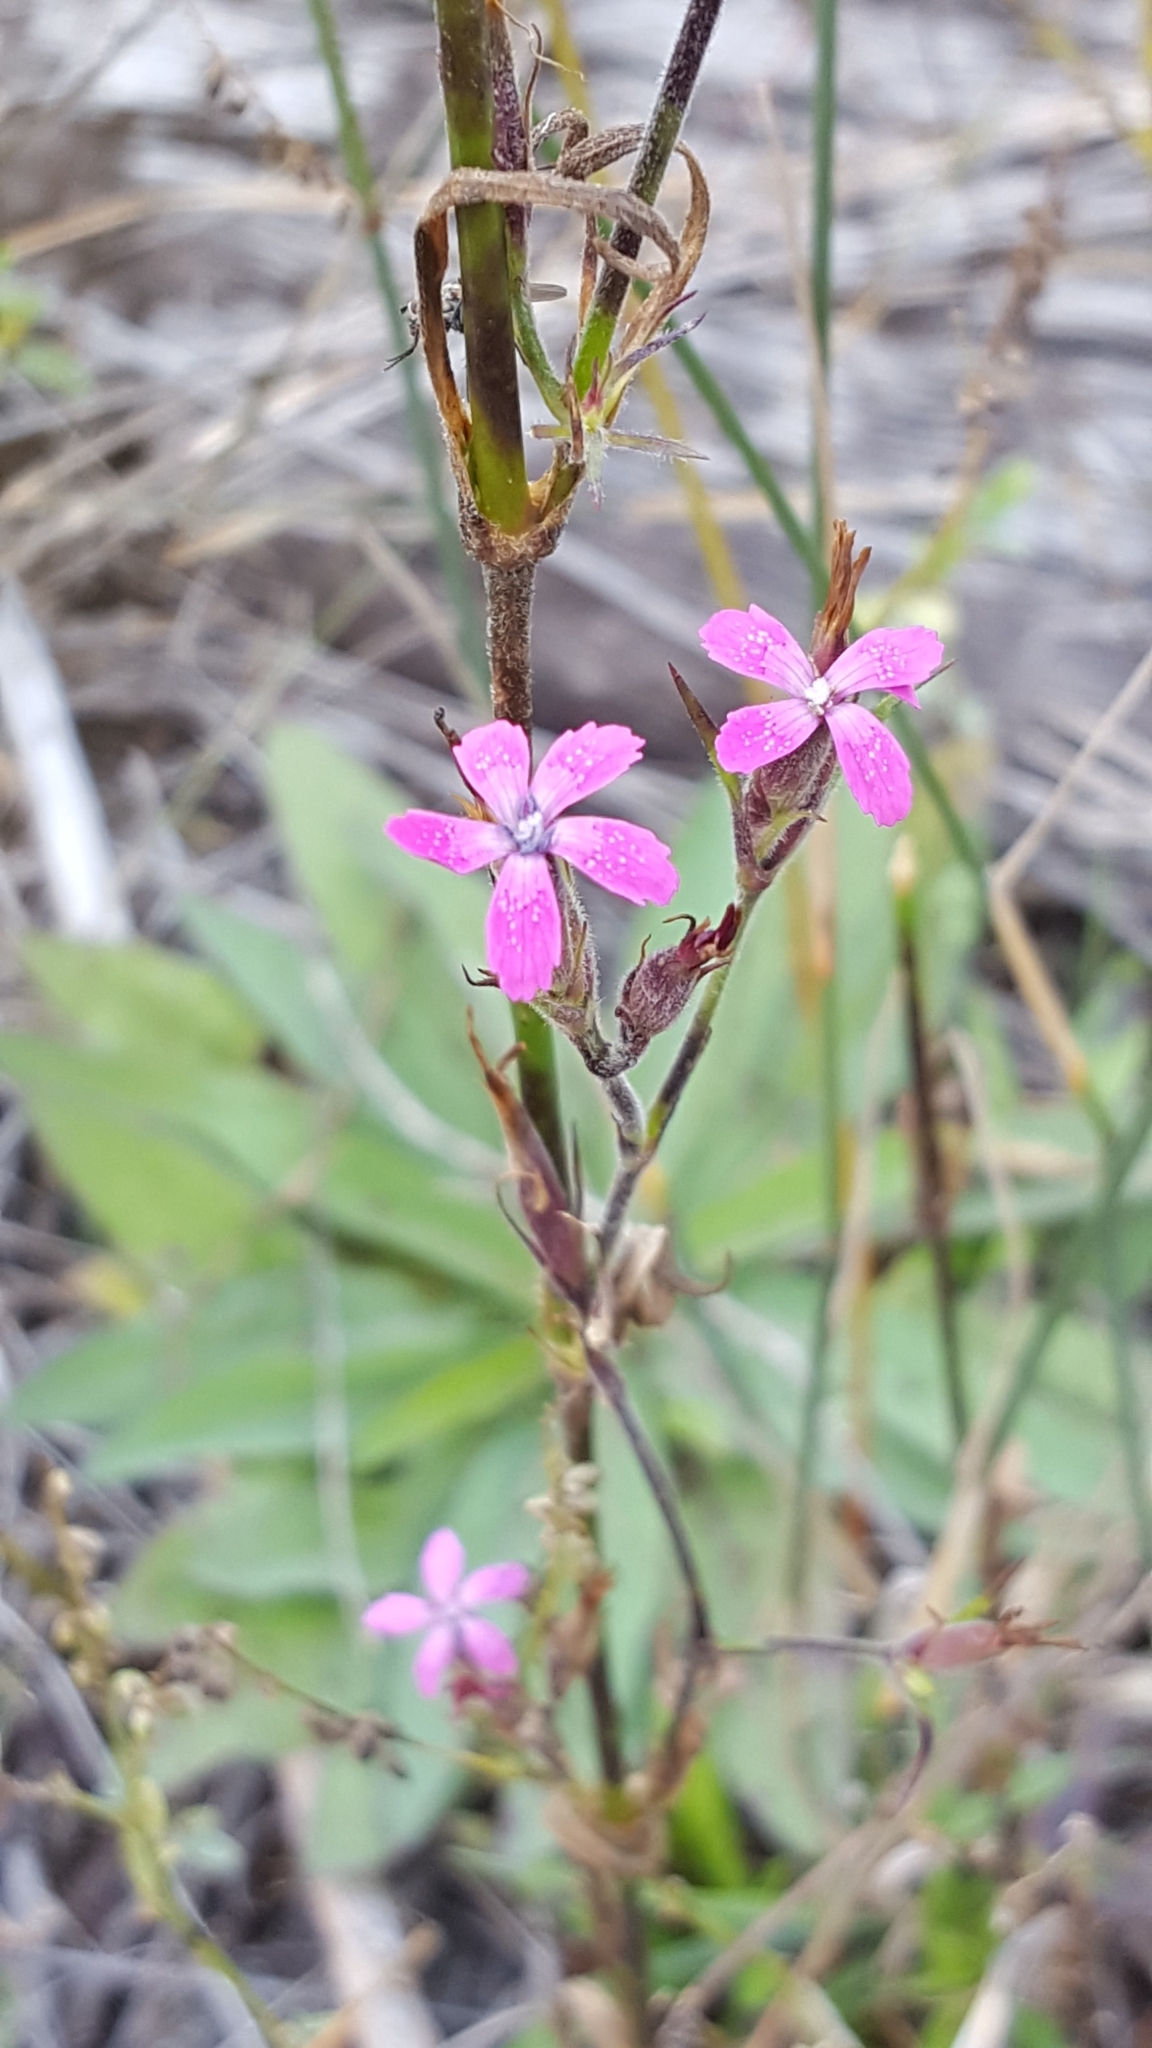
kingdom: Plantae
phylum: Tracheophyta
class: Magnoliopsida
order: Caryophyllales
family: Caryophyllaceae
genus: Dianthus
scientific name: Dianthus armeria
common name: Deptford pink
